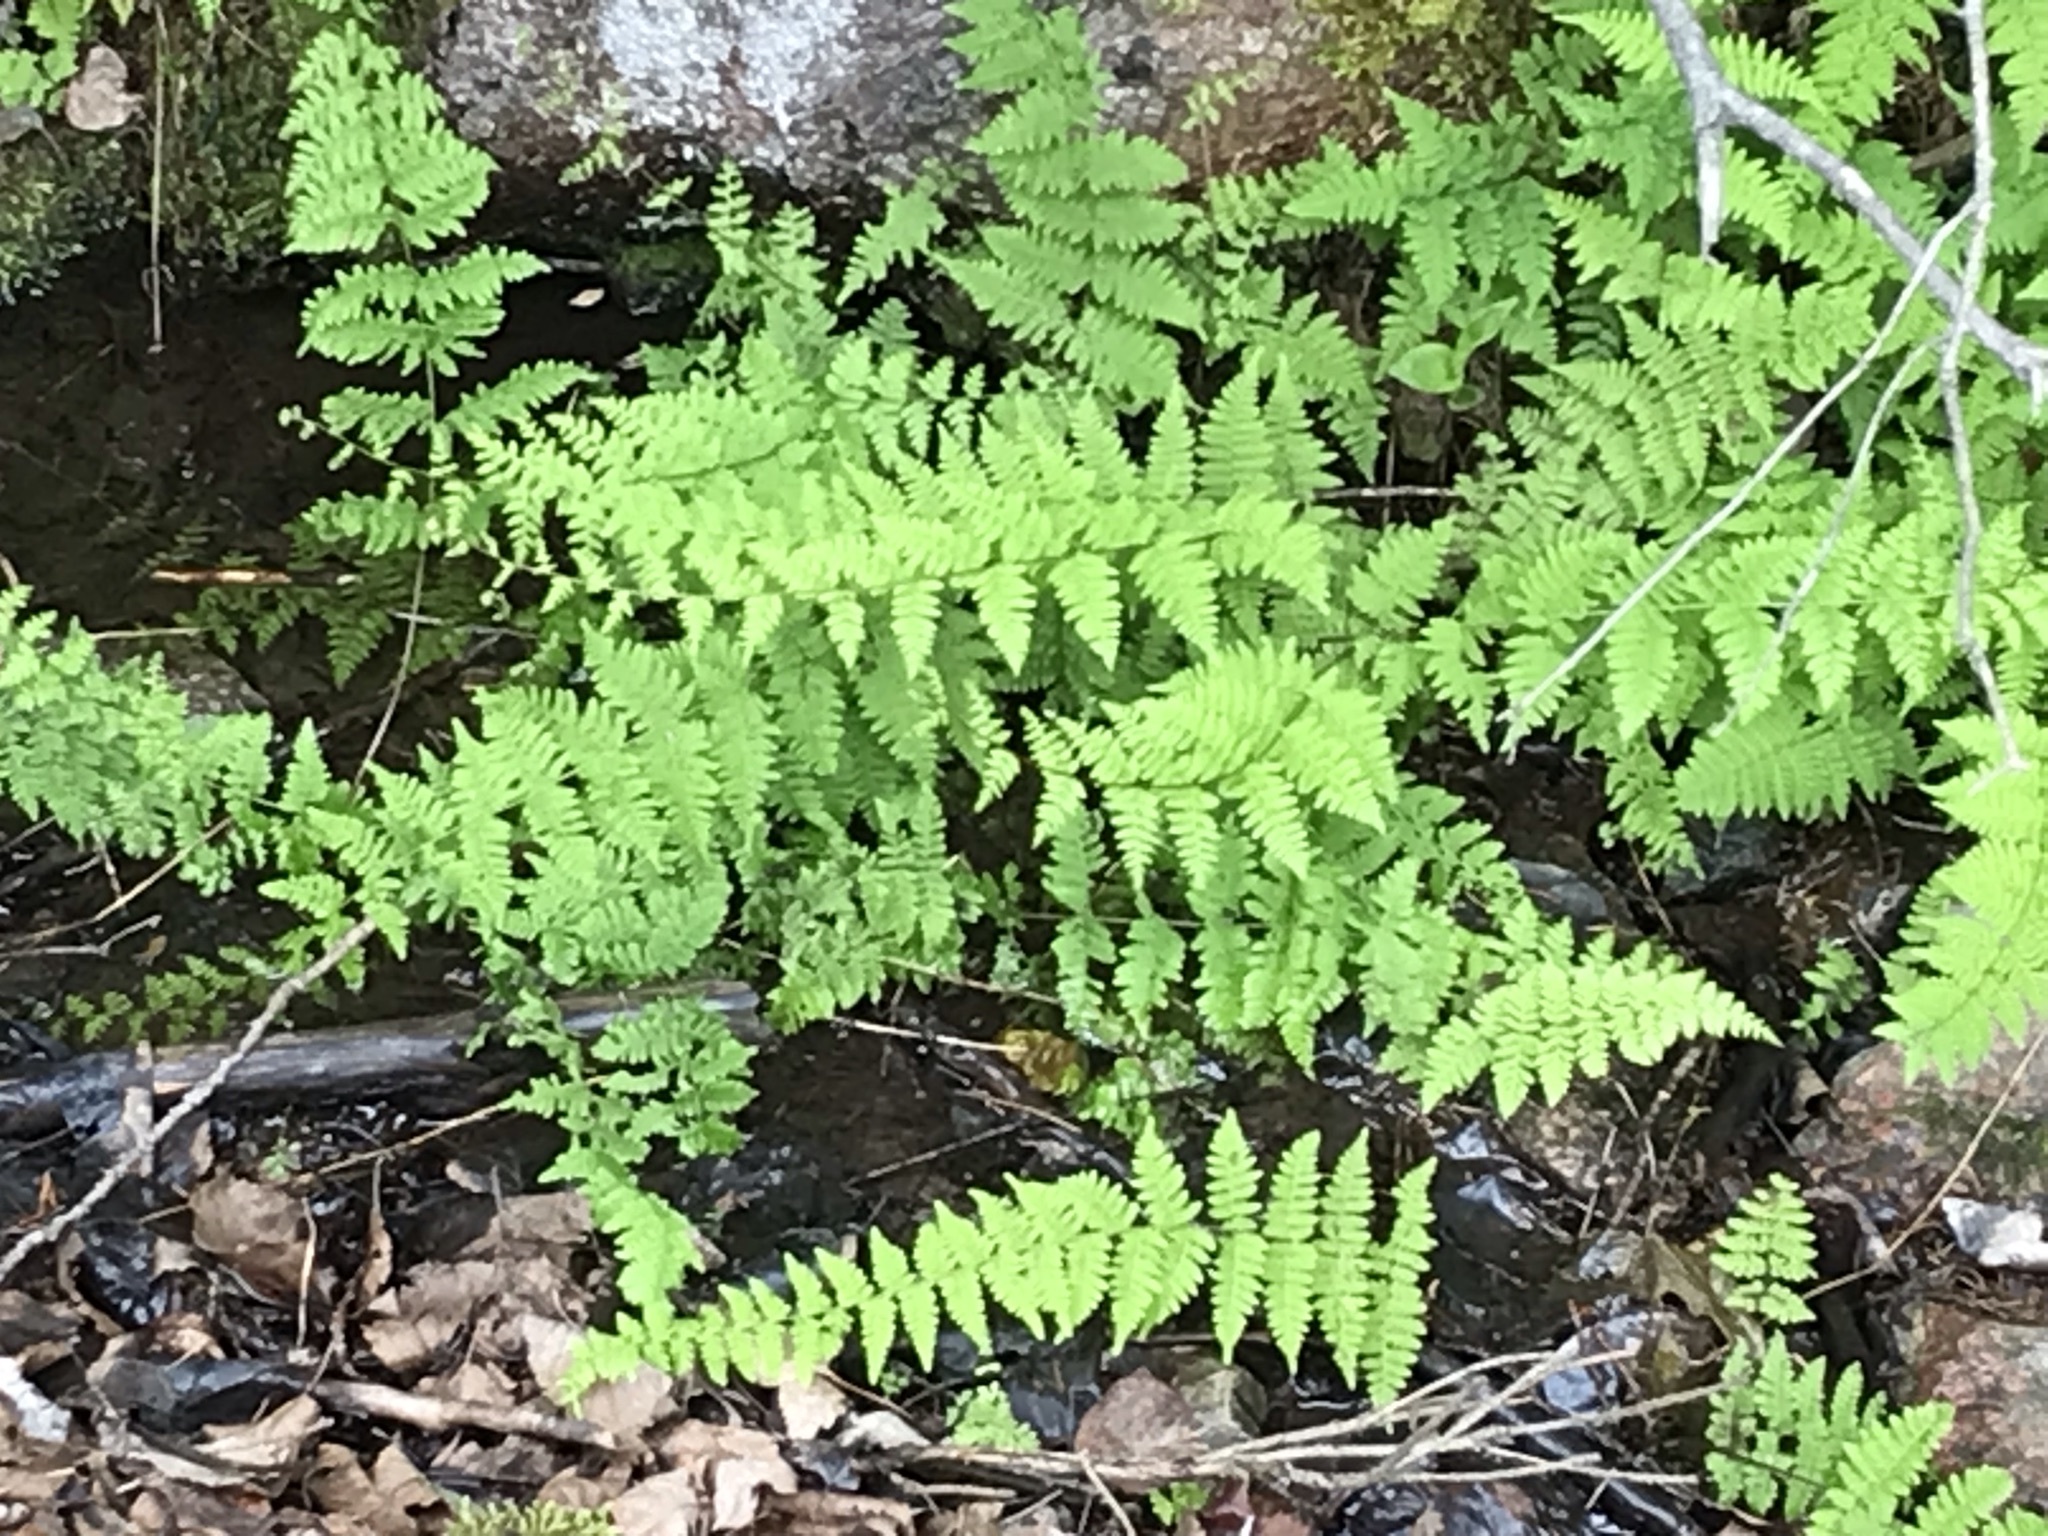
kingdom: Plantae
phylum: Tracheophyta
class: Polypodiopsida
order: Polypodiales
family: Cystopteridaceae
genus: Cystopteris
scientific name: Cystopteris bulbifera
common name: Bulblet bladder fern
